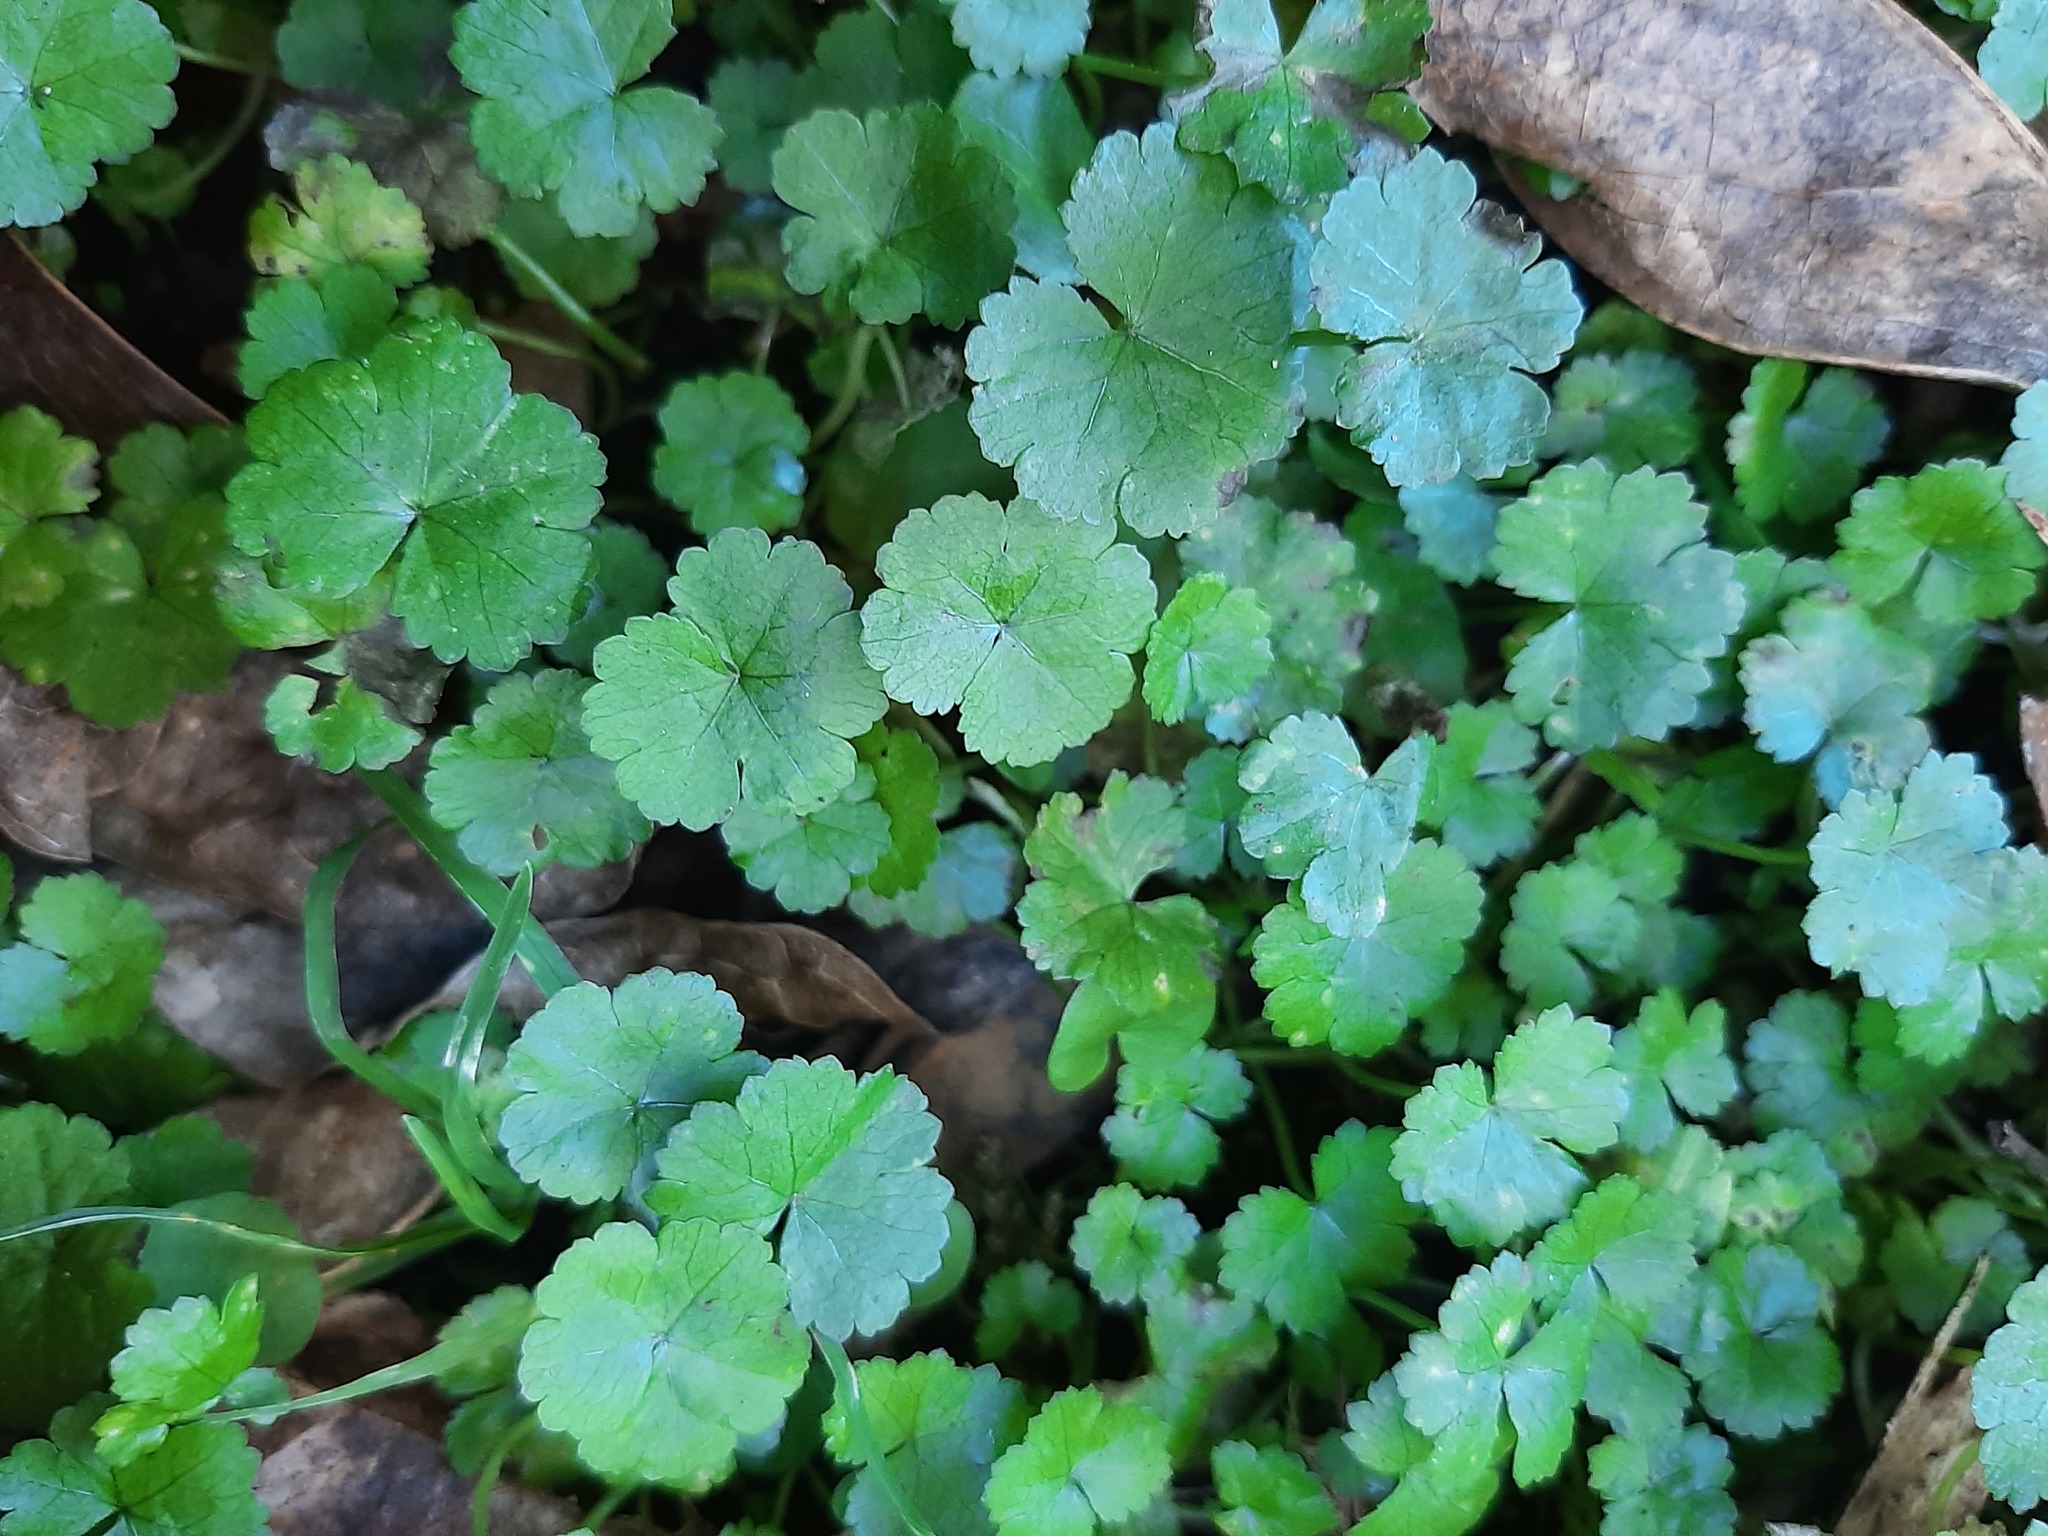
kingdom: Plantae
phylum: Tracheophyta
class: Magnoliopsida
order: Apiales
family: Araliaceae
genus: Hydrocotyle
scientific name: Hydrocotyle heteromeria
